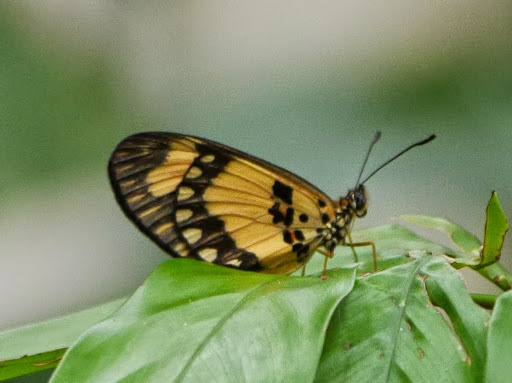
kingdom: Animalia
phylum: Arthropoda
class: Insecta
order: Lepidoptera
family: Nymphalidae
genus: Acraea
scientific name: Acraea Telchinia bonasia
